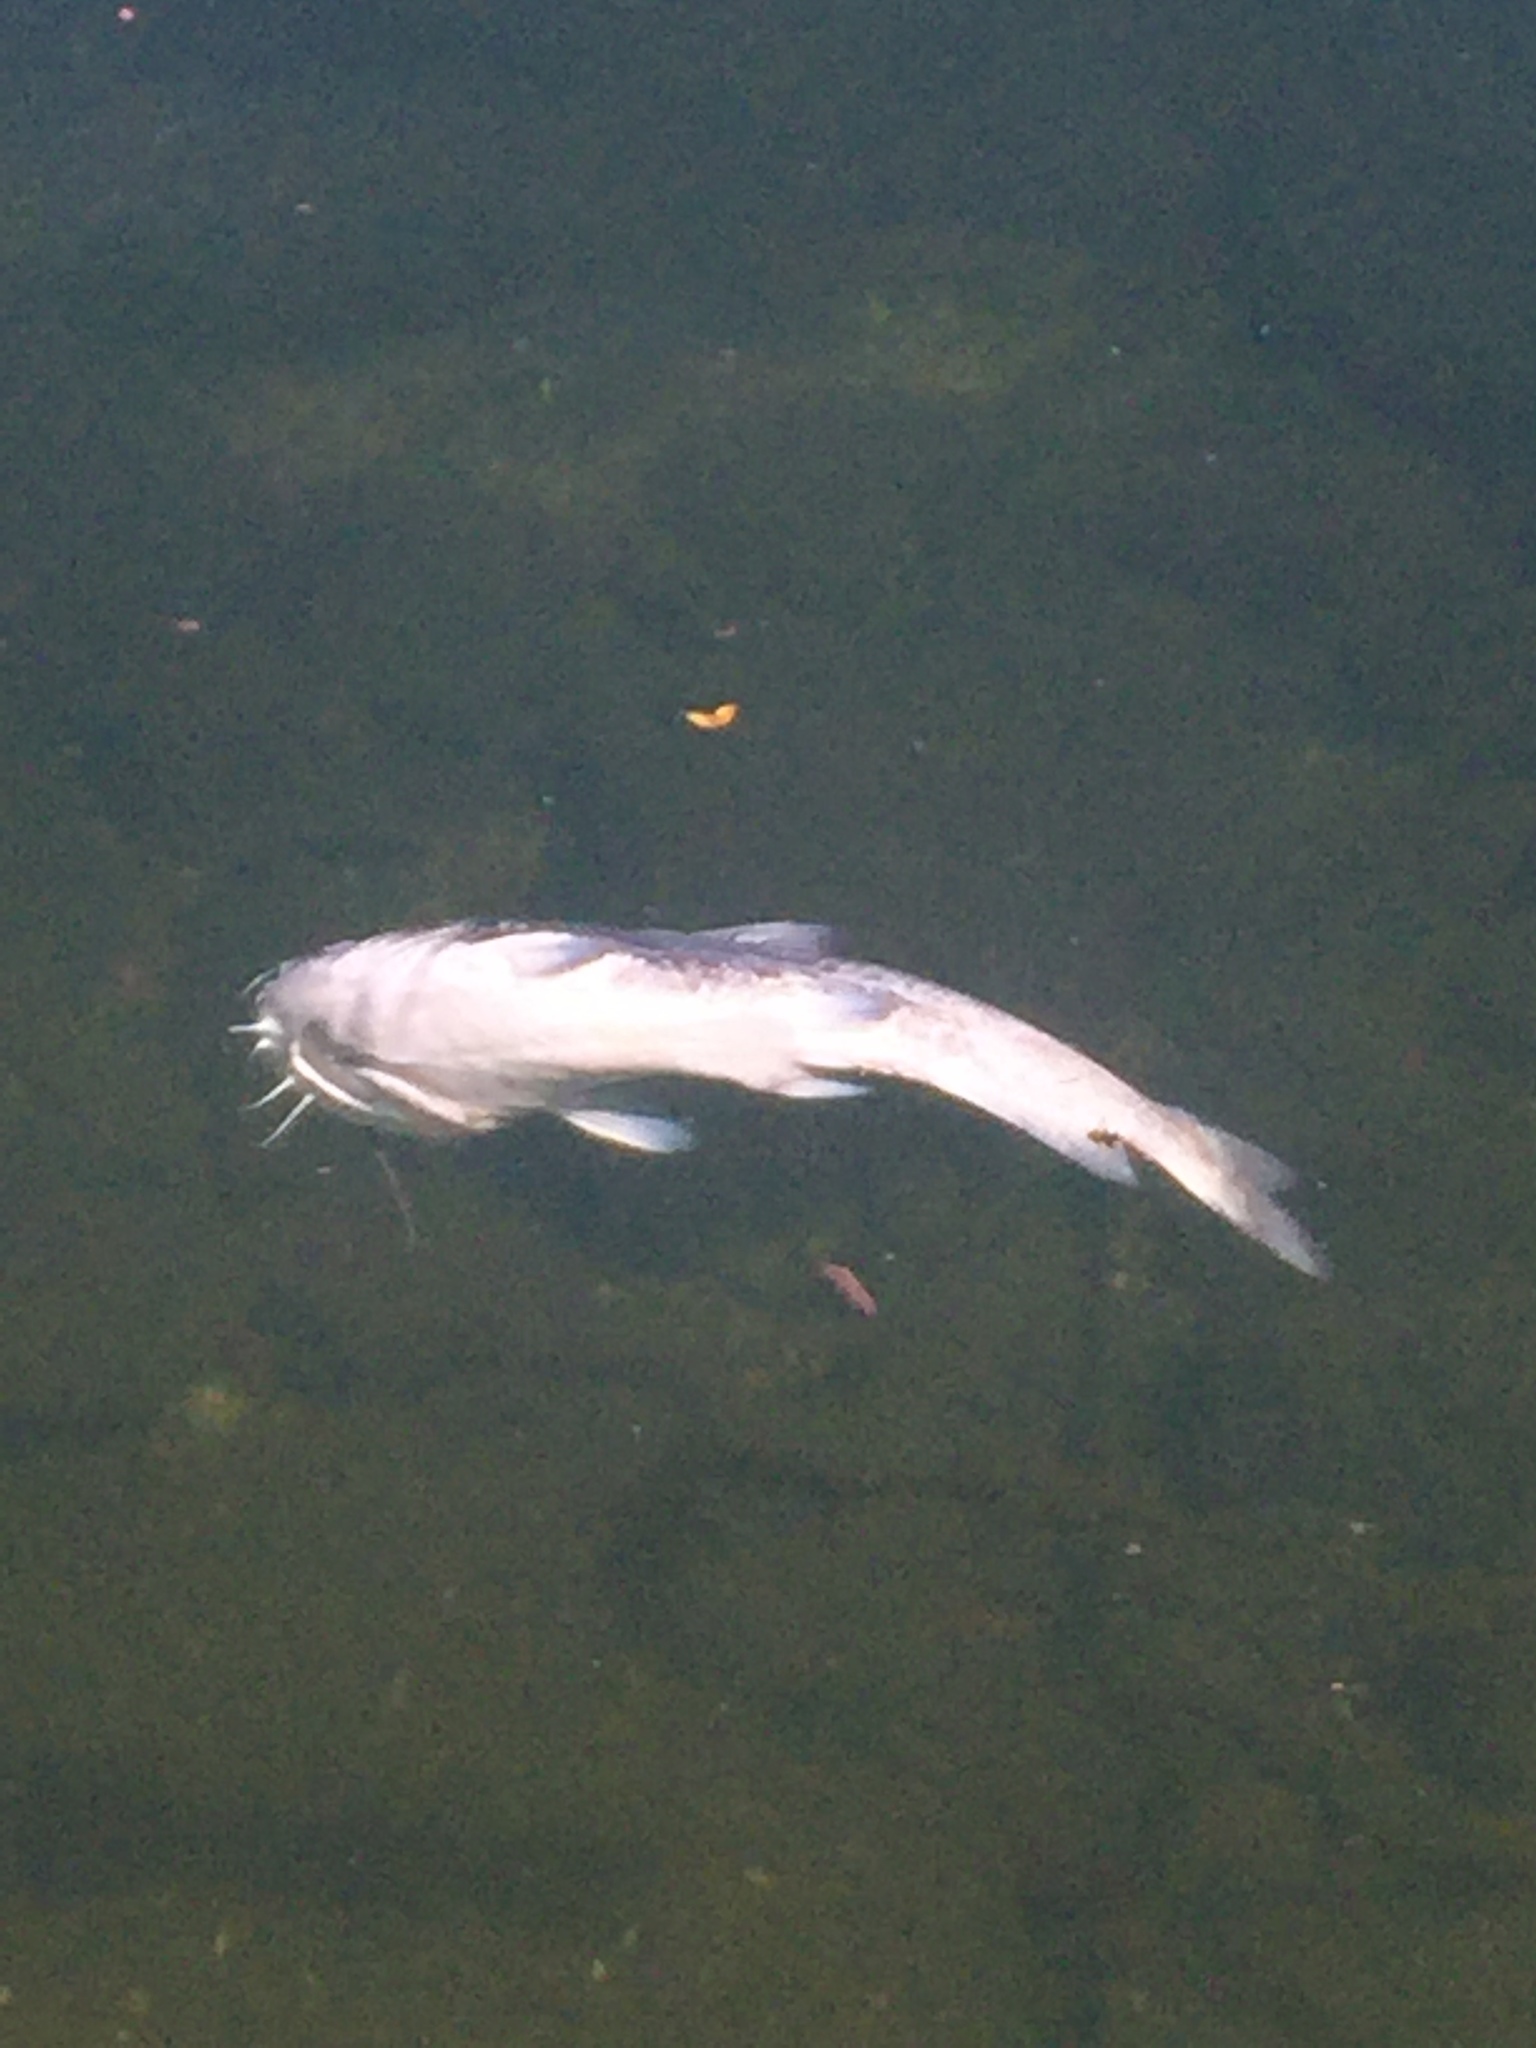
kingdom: Animalia
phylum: Chordata
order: Siluriformes
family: Ictaluridae
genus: Ameiurus
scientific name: Ameiurus catus
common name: White catfish
